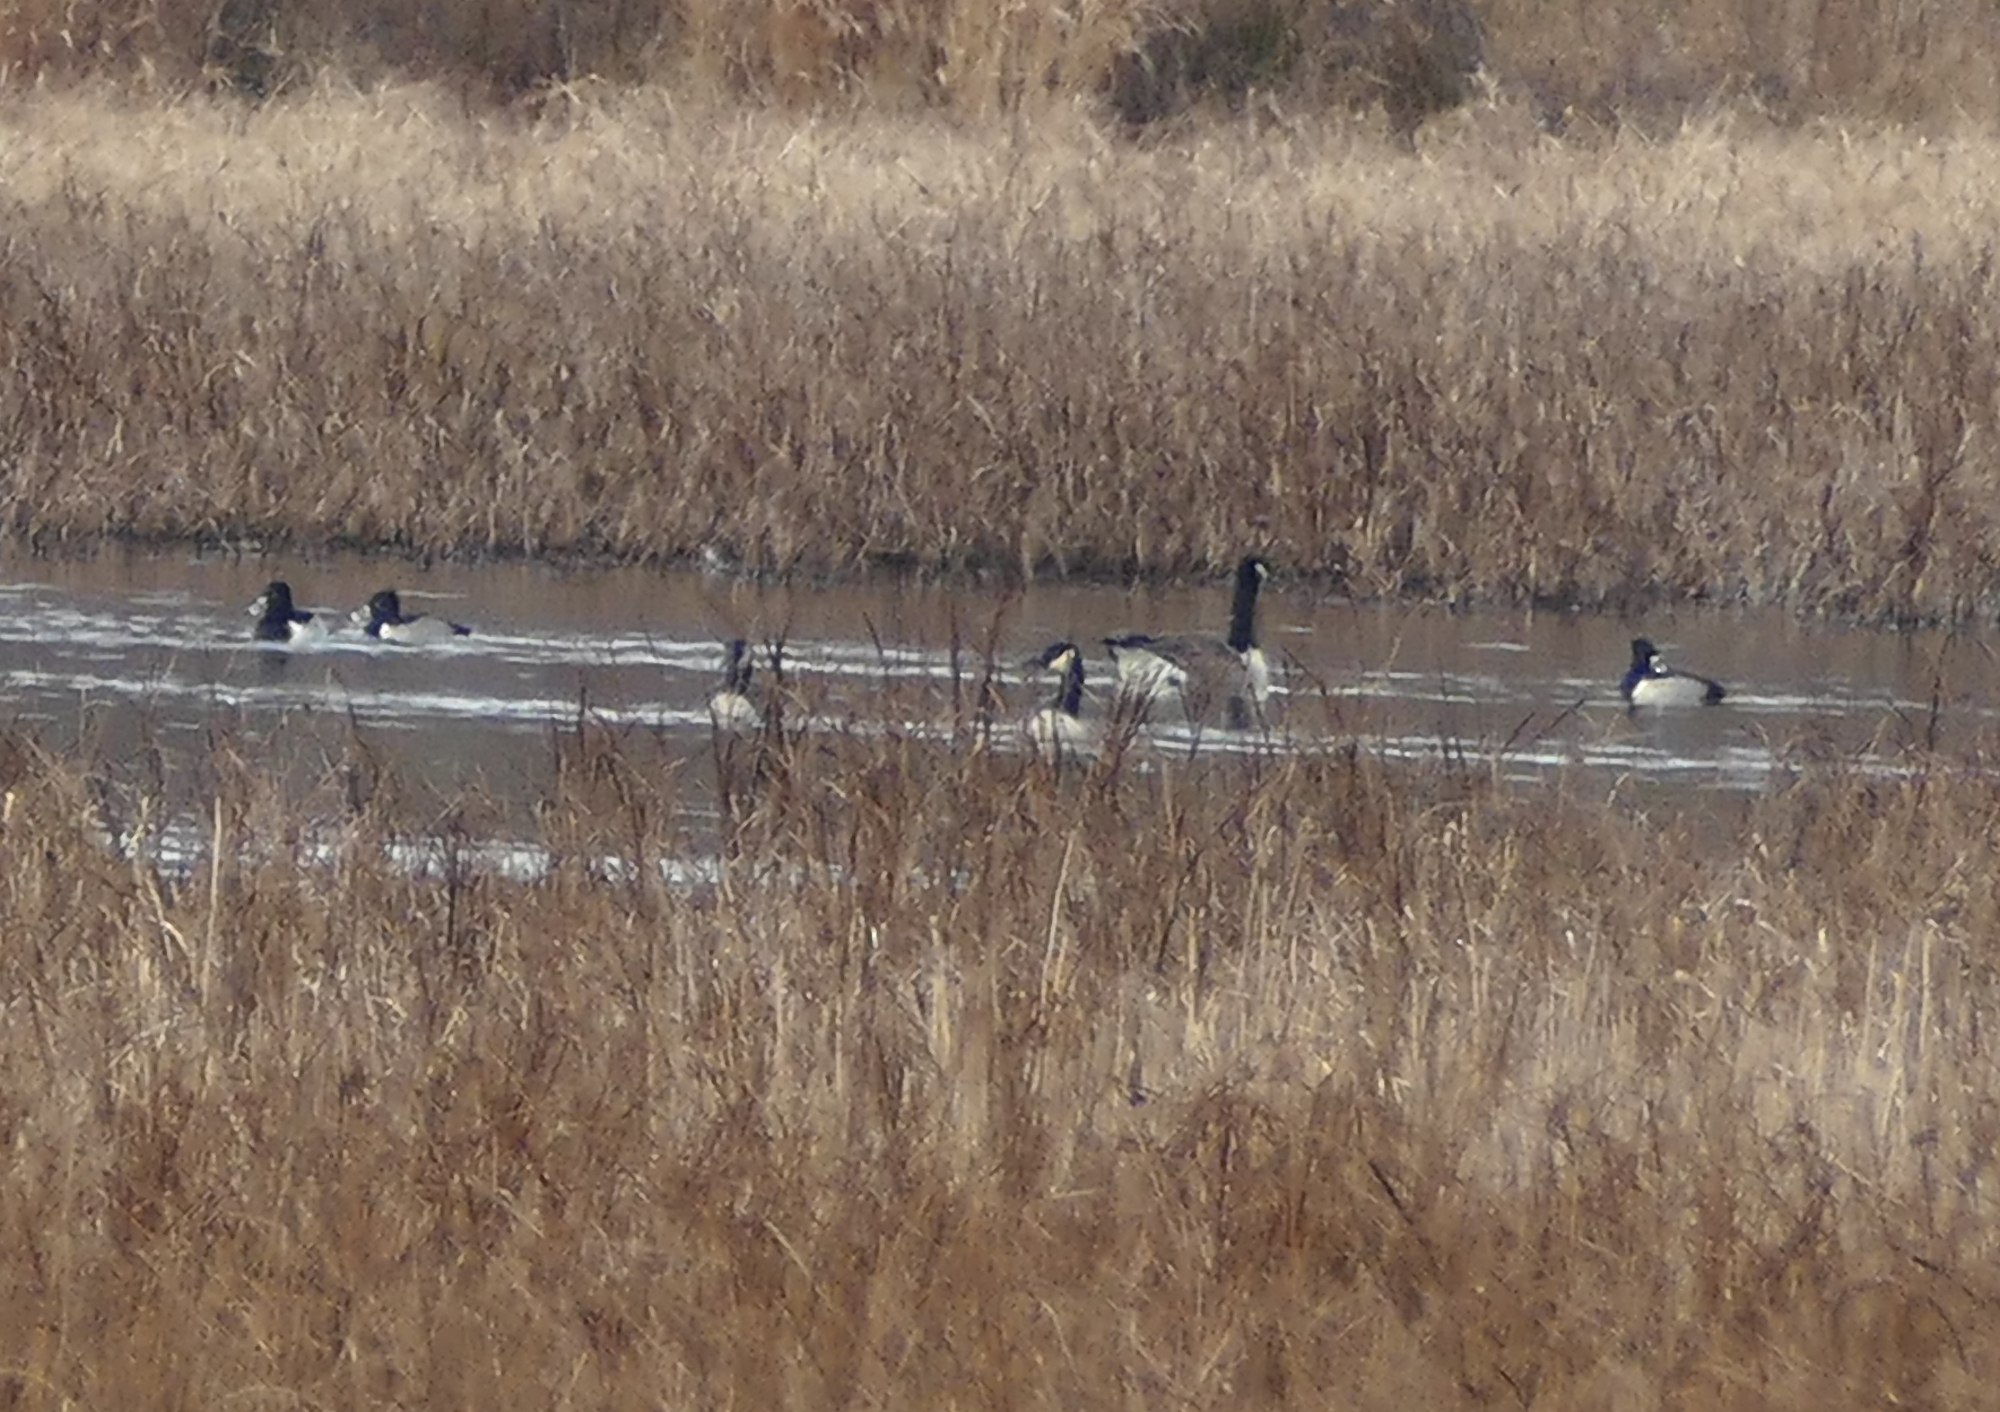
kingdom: Animalia
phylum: Chordata
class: Aves
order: Anseriformes
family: Anatidae
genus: Aythya
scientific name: Aythya collaris
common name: Ring-necked duck
